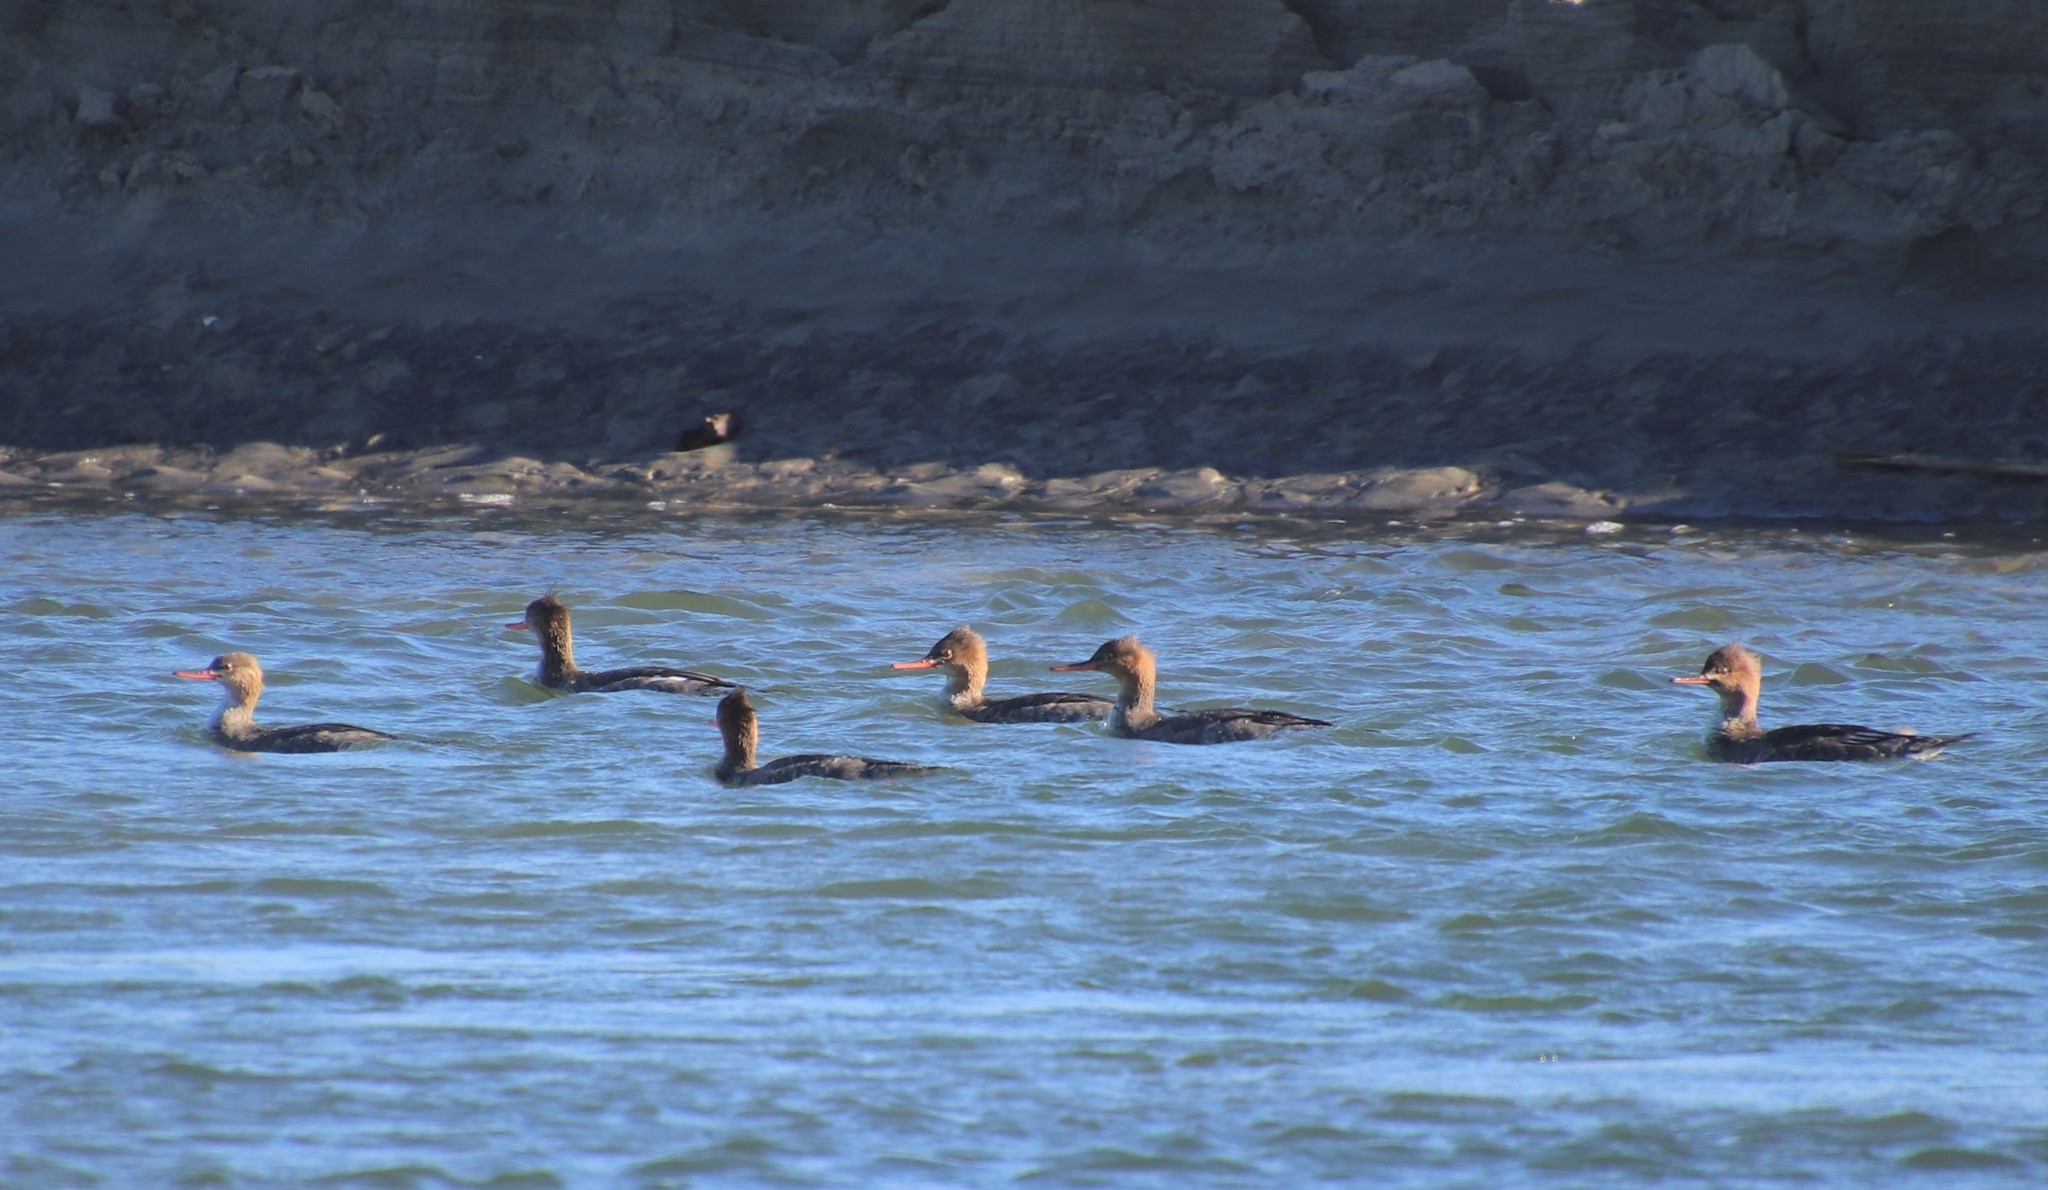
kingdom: Animalia
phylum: Chordata
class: Aves
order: Anseriformes
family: Anatidae
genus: Mergus
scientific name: Mergus serrator
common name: Red-breasted merganser
